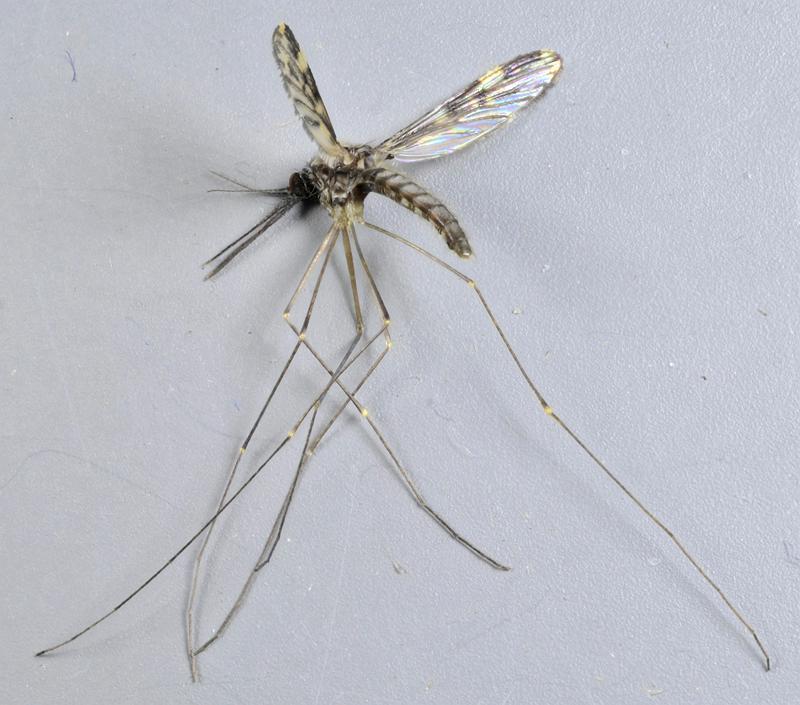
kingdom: Animalia
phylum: Arthropoda
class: Insecta
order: Diptera
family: Culicidae
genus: Anopheles
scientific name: Anopheles punctipennis
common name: Woodland malaria mosquito
